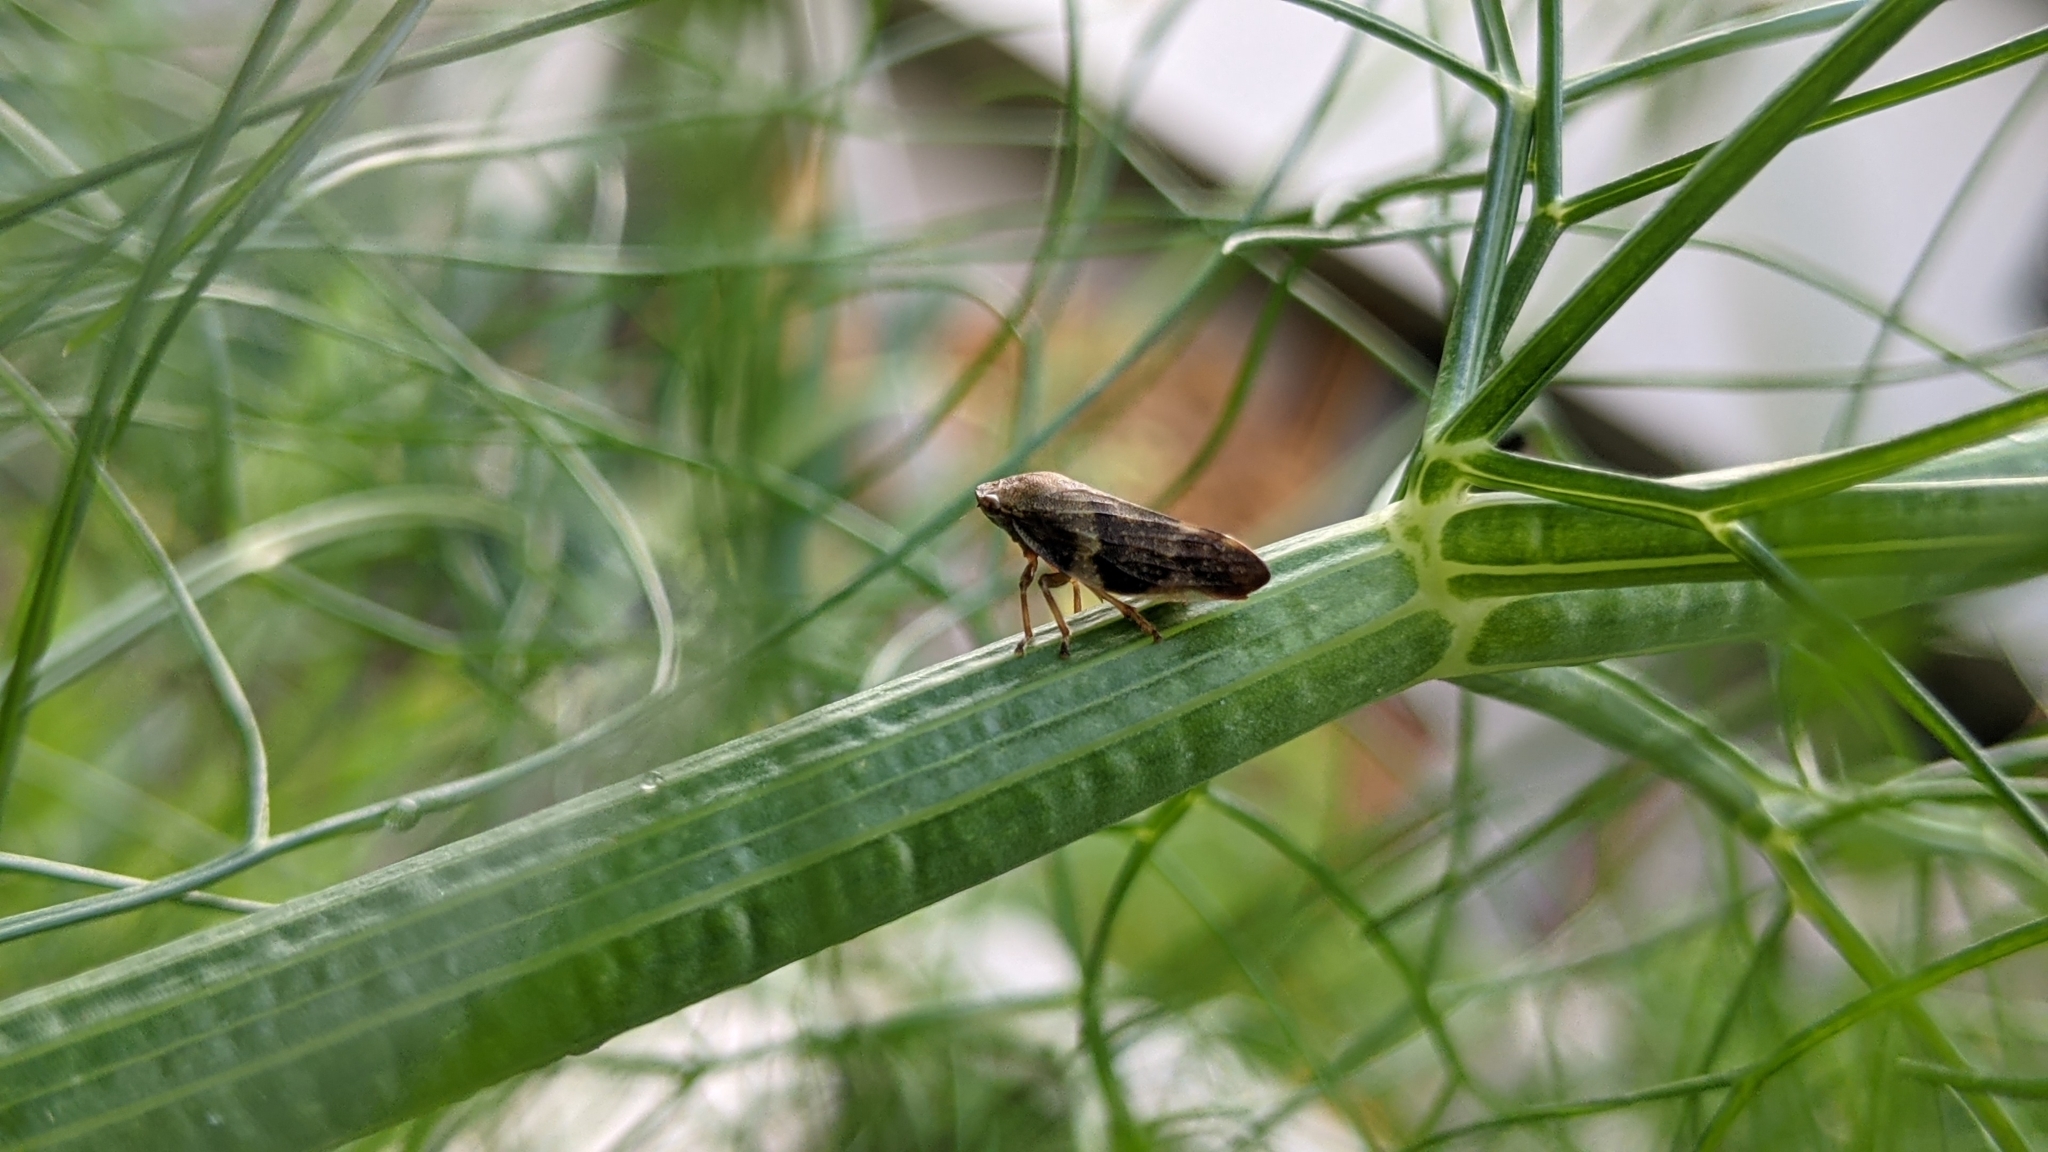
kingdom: Animalia
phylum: Arthropoda
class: Insecta
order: Hemiptera
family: Aphrophoridae
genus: Aphrophora
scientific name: Aphrophora alni
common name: European alder spittlebug
